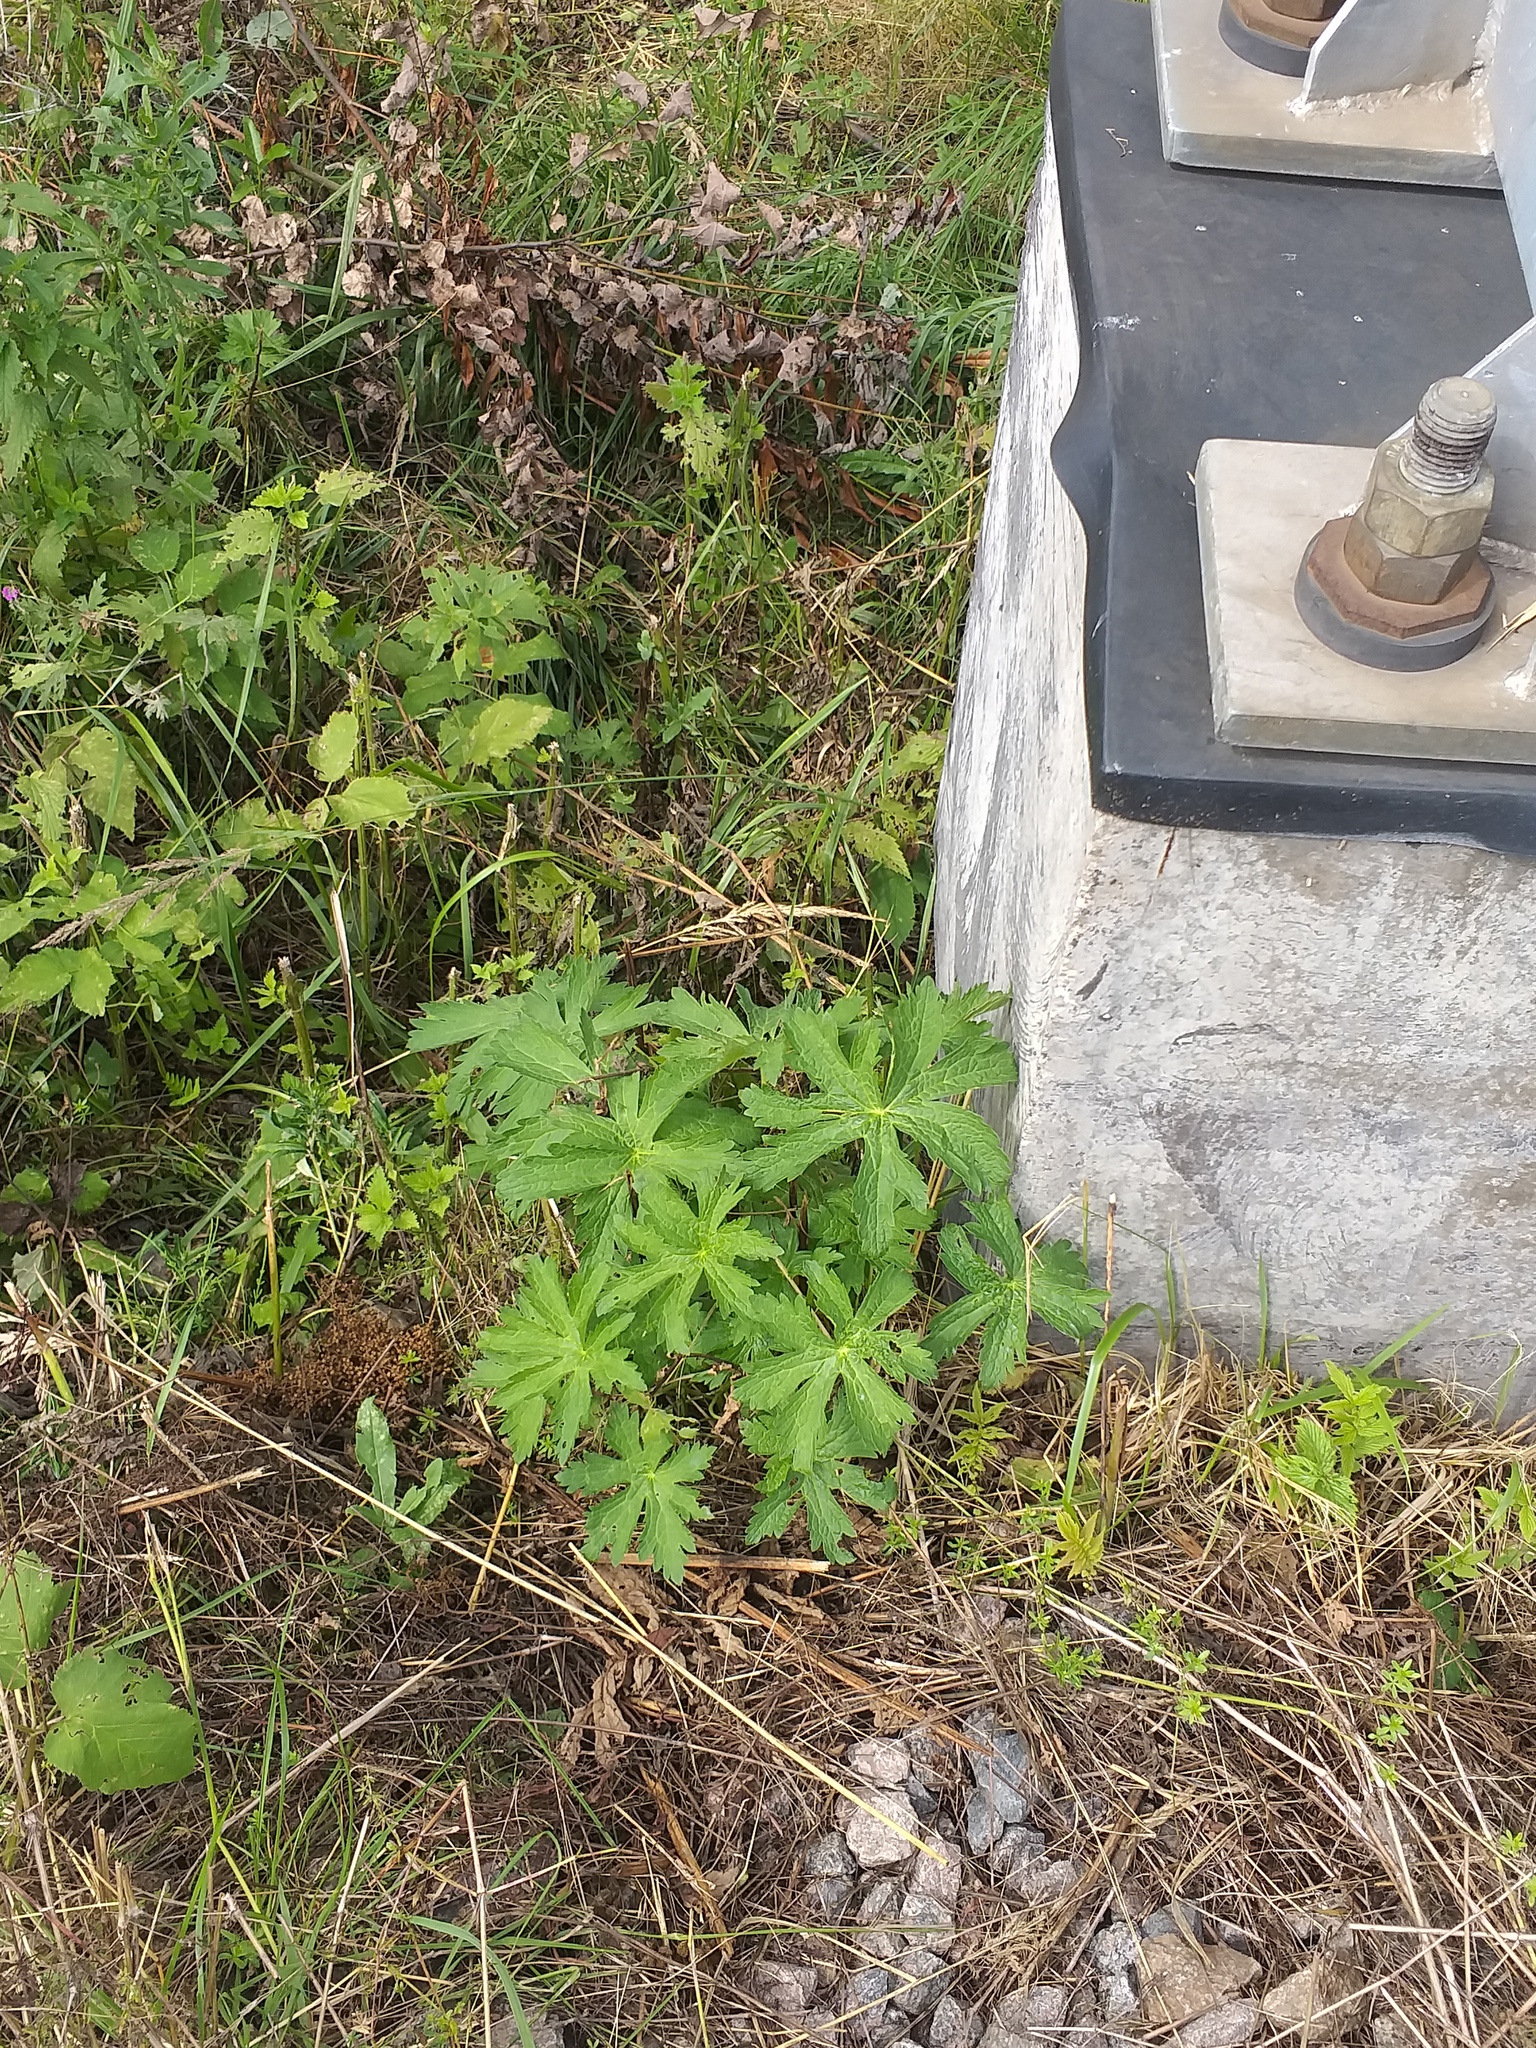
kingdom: Plantae
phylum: Tracheophyta
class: Magnoliopsida
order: Geraniales
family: Geraniaceae
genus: Geranium
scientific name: Geranium sylvaticum
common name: Wood crane's-bill
